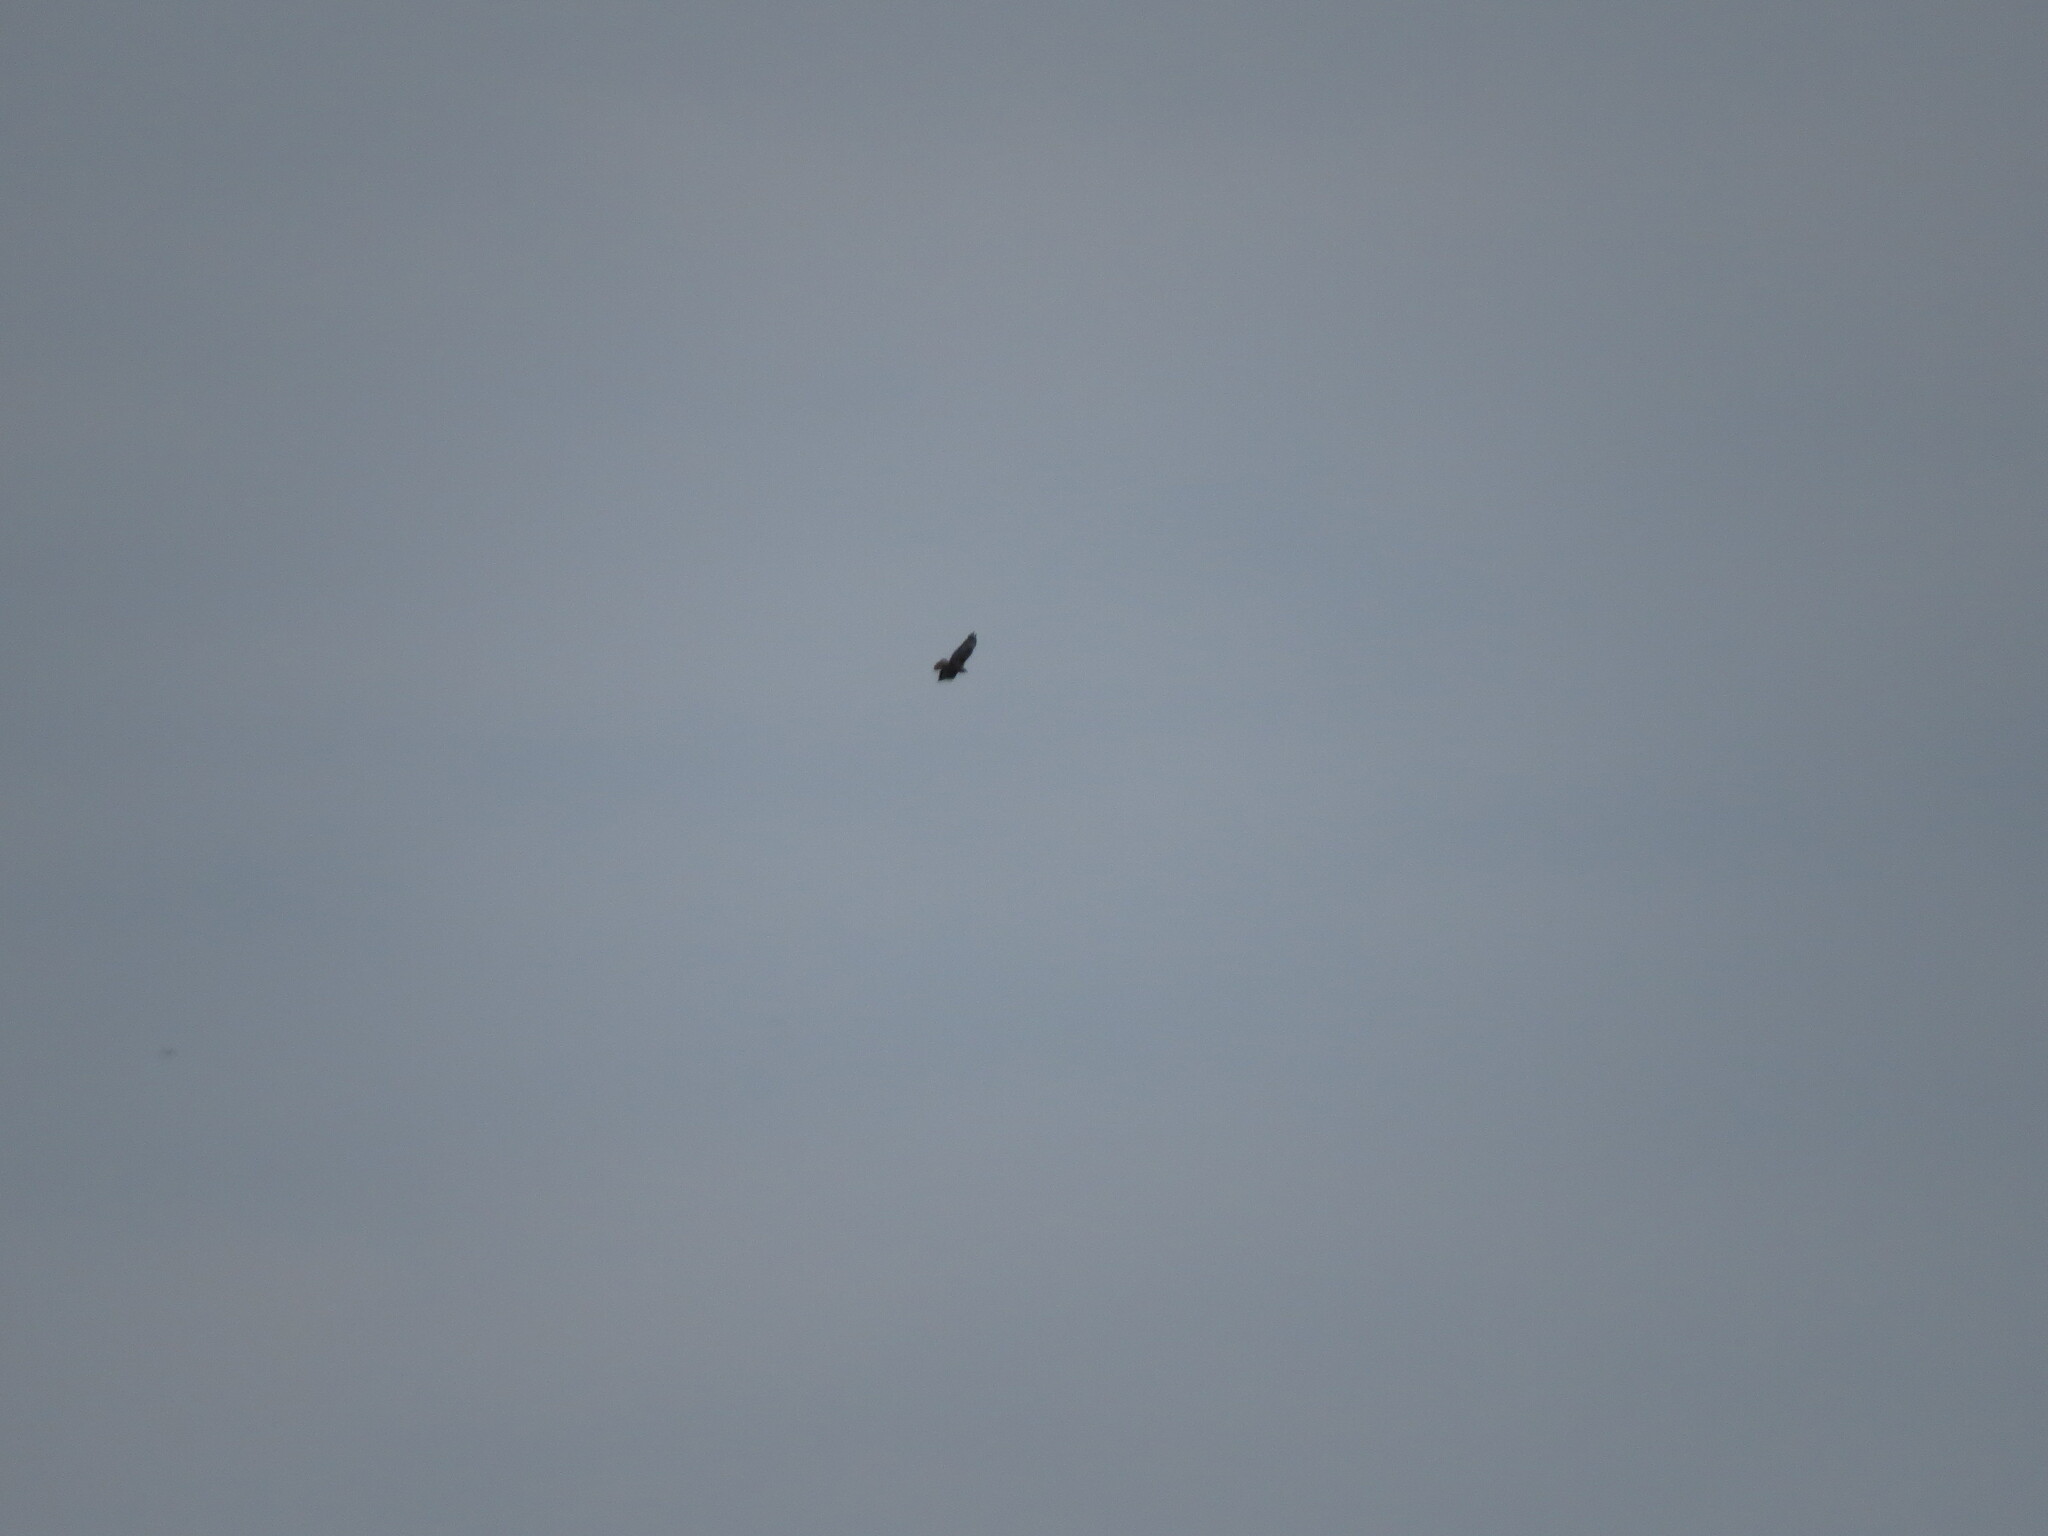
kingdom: Animalia
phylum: Chordata
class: Aves
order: Accipitriformes
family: Accipitridae
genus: Buteo
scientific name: Buteo buteo
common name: Common buzzard
